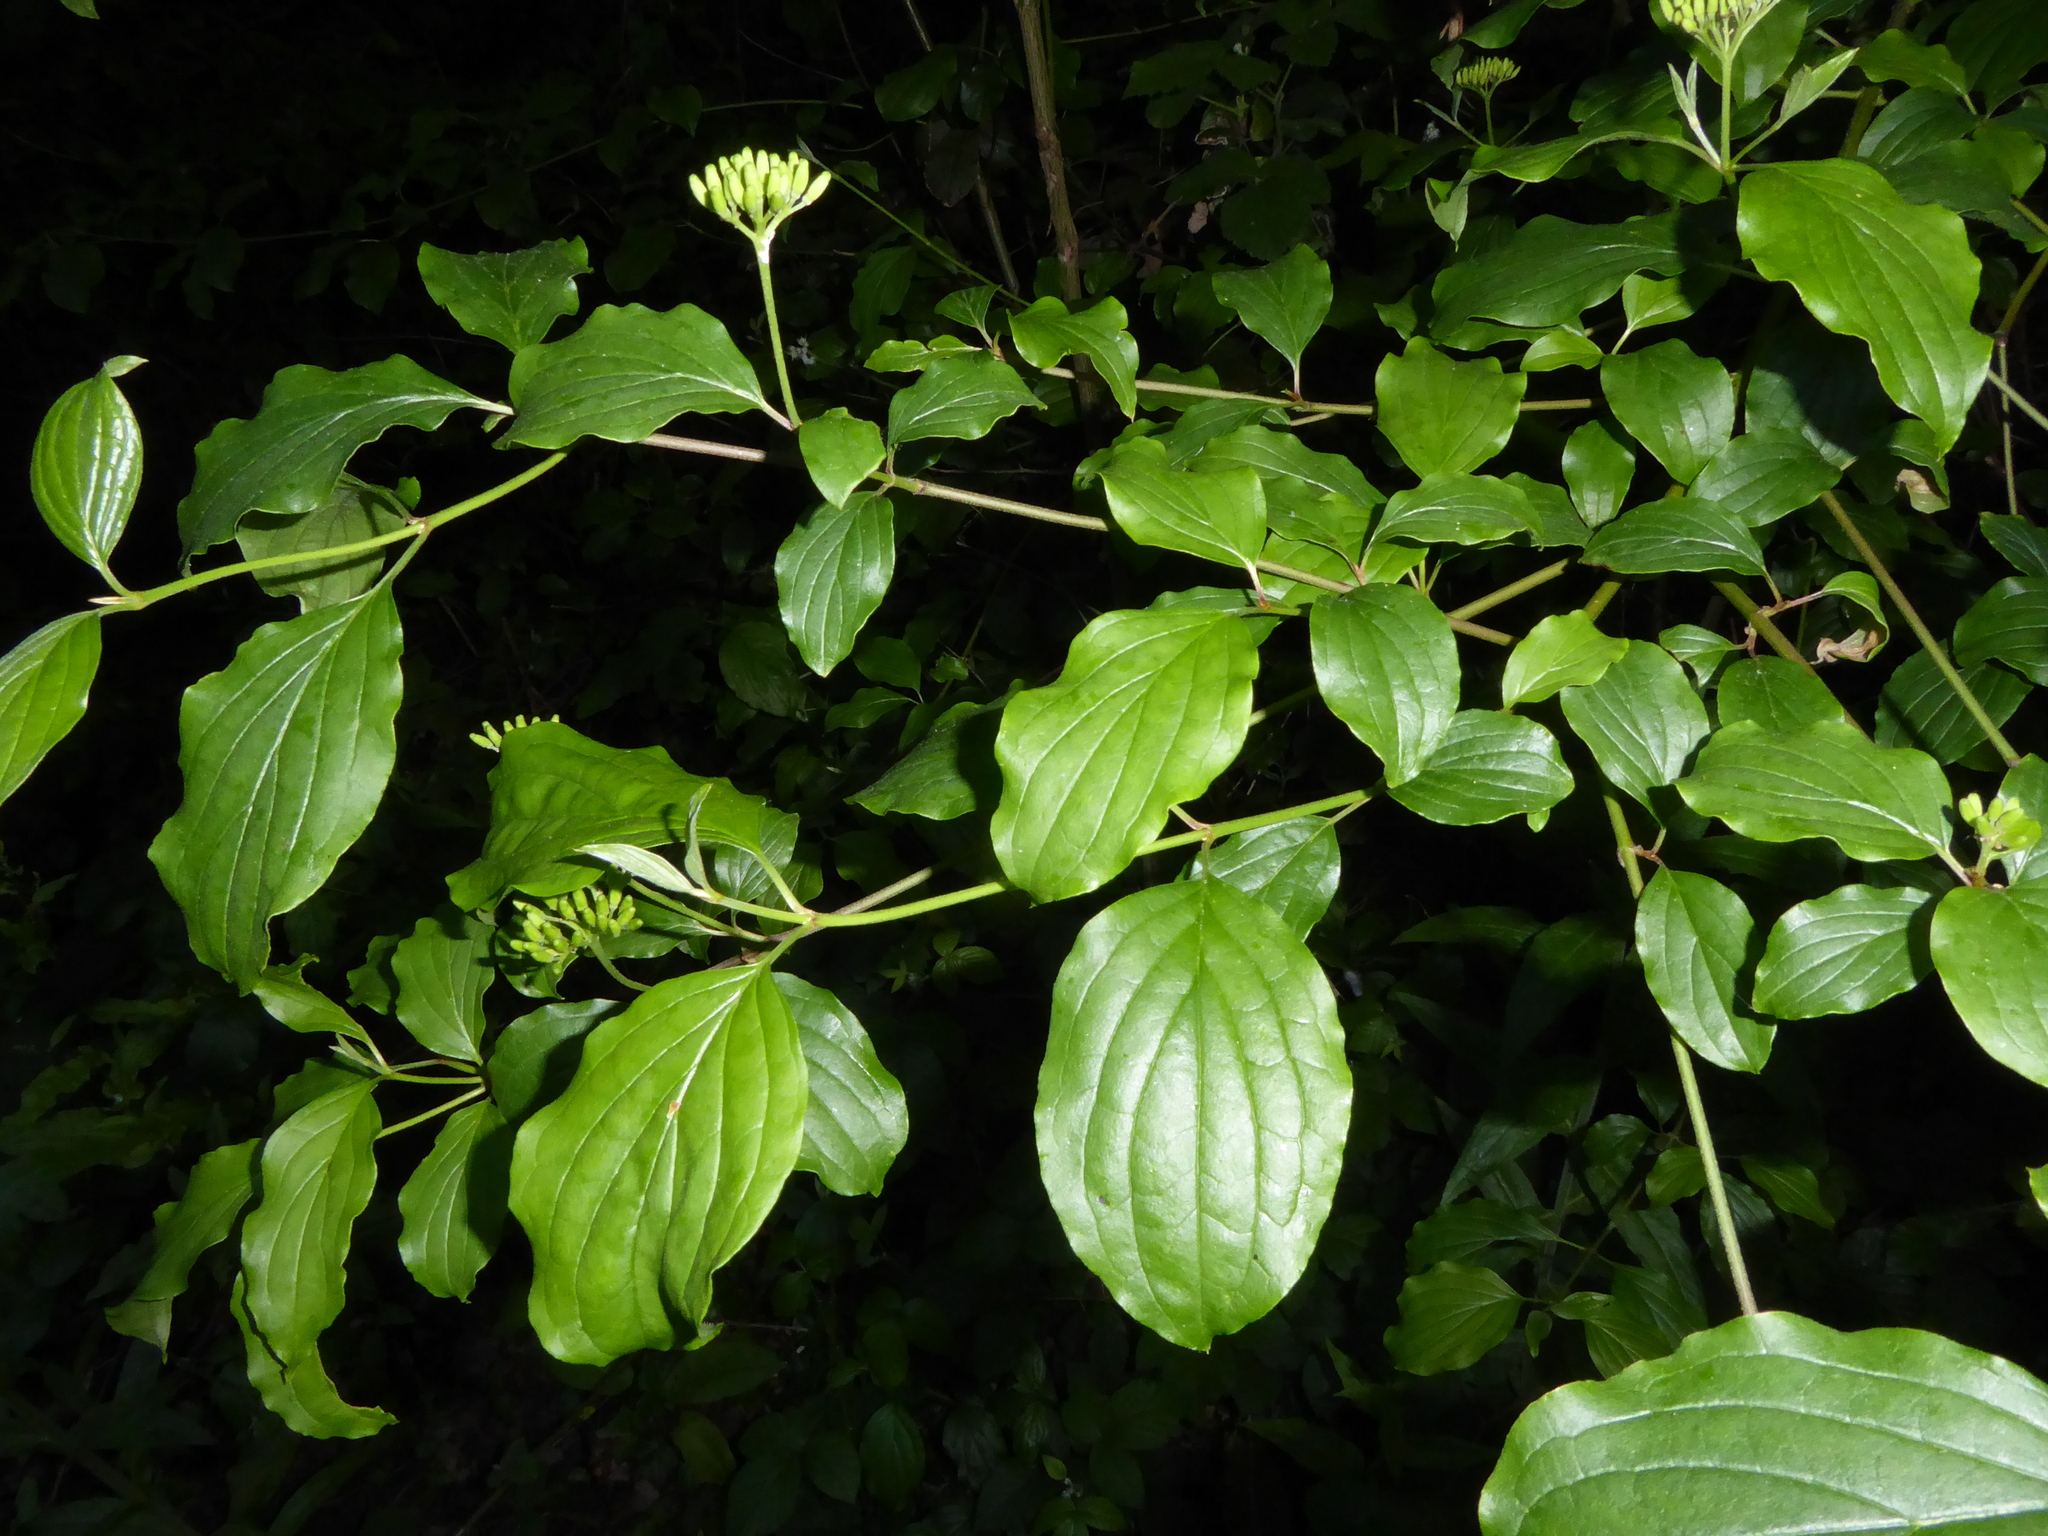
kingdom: Plantae
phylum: Tracheophyta
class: Magnoliopsida
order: Cornales
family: Cornaceae
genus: Cornus
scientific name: Cornus sanguinea
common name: Dogwood
